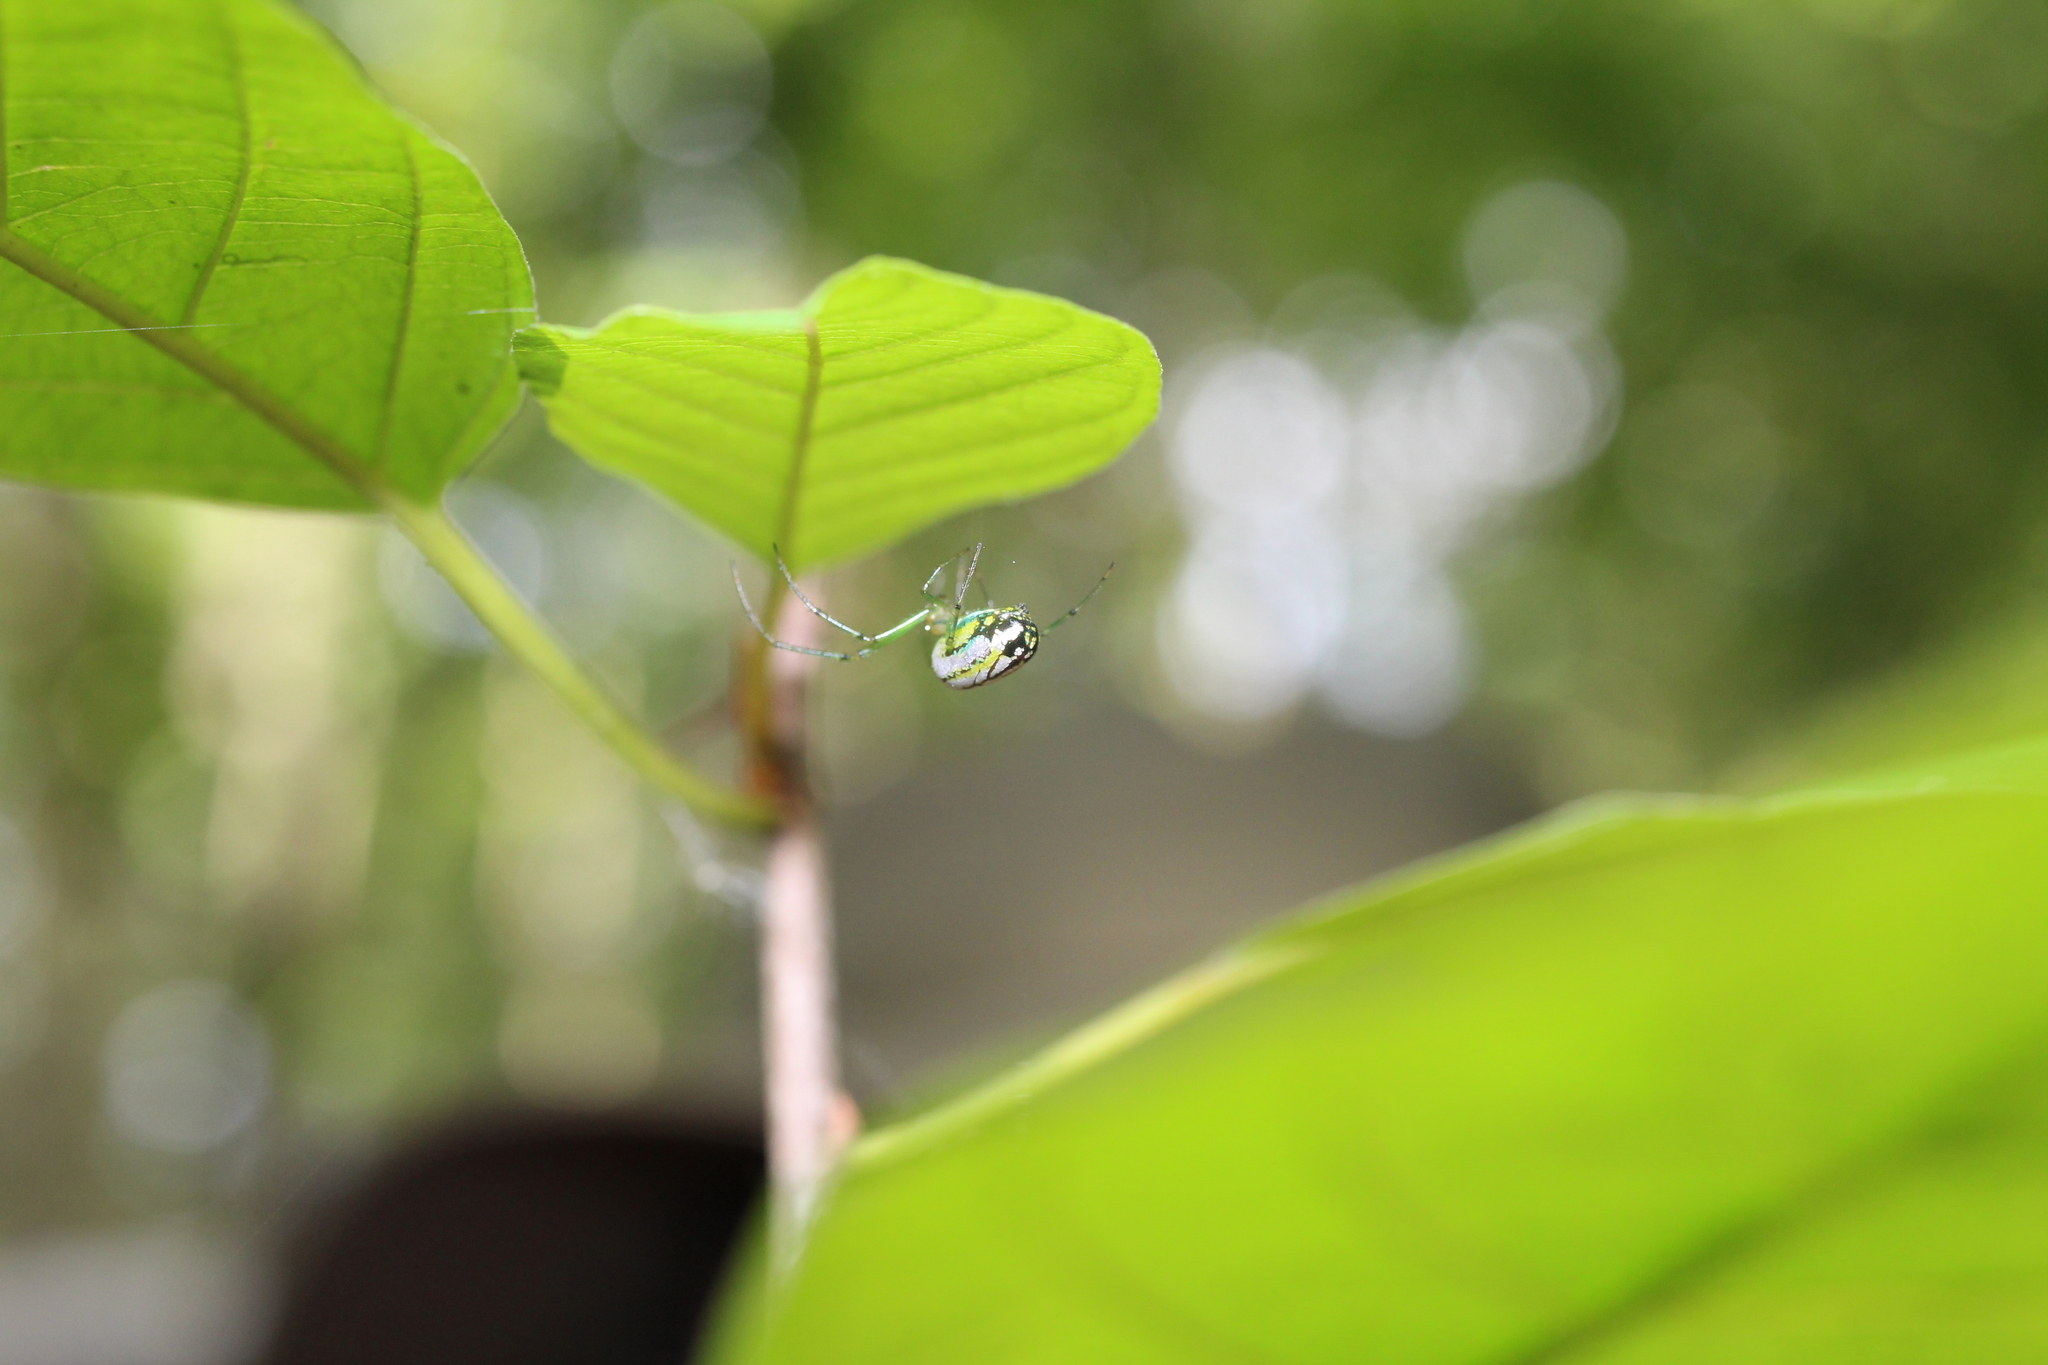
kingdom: Animalia
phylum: Arthropoda
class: Arachnida
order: Araneae
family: Tetragnathidae
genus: Leucauge
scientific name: Leucauge venusta
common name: Longjawed orb weavers
